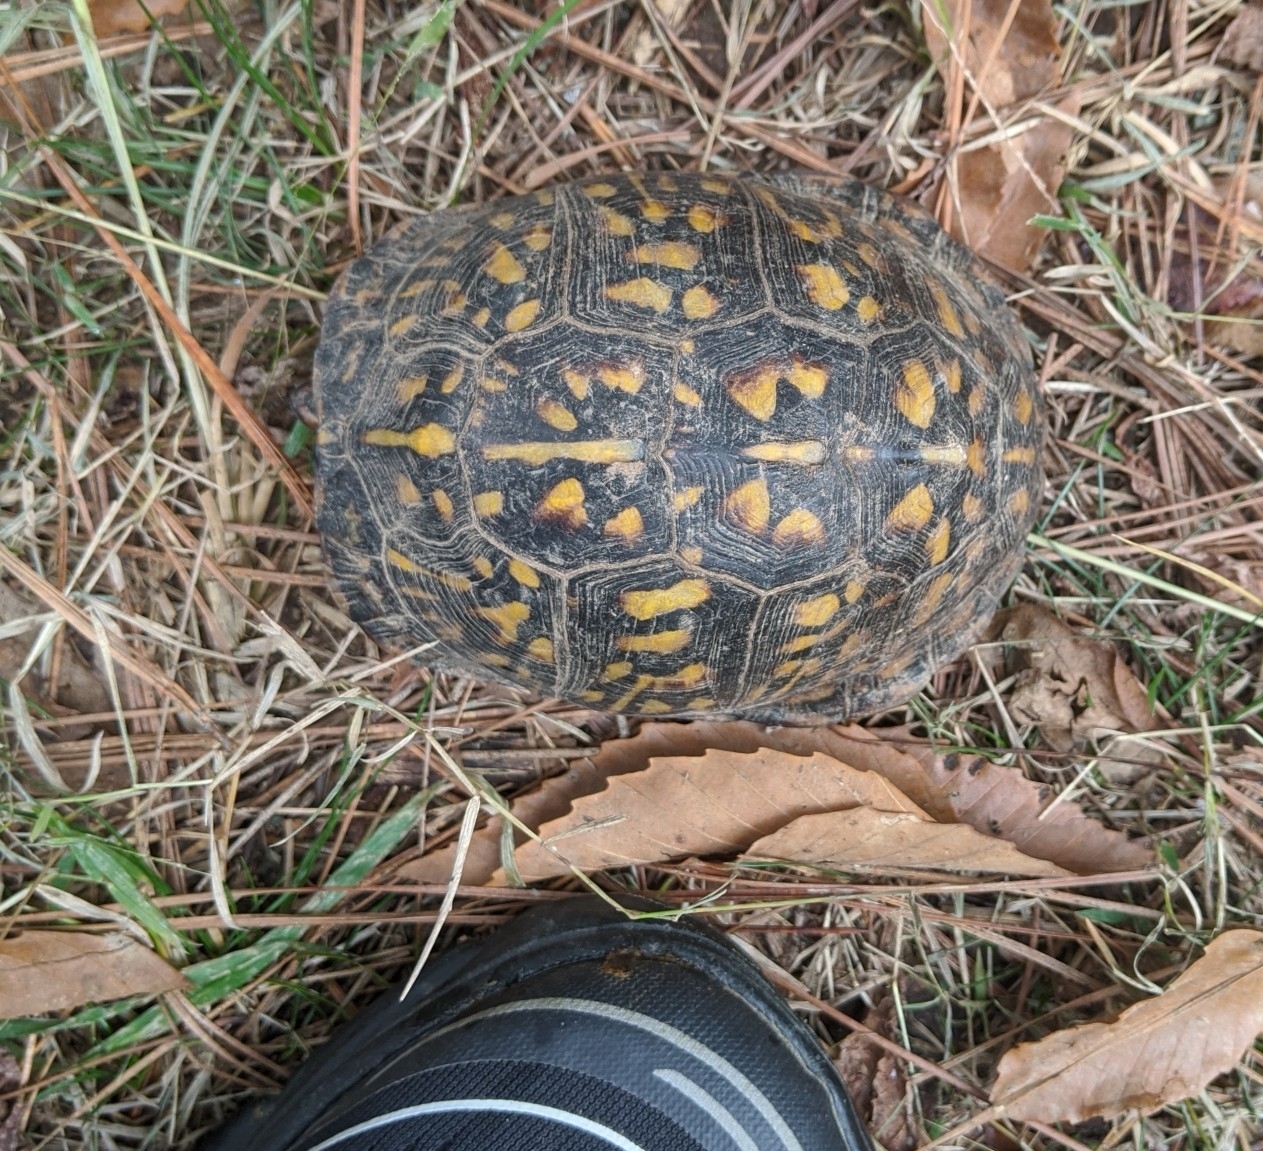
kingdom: Animalia
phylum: Chordata
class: Testudines
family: Emydidae
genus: Terrapene
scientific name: Terrapene carolina
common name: Common box turtle
